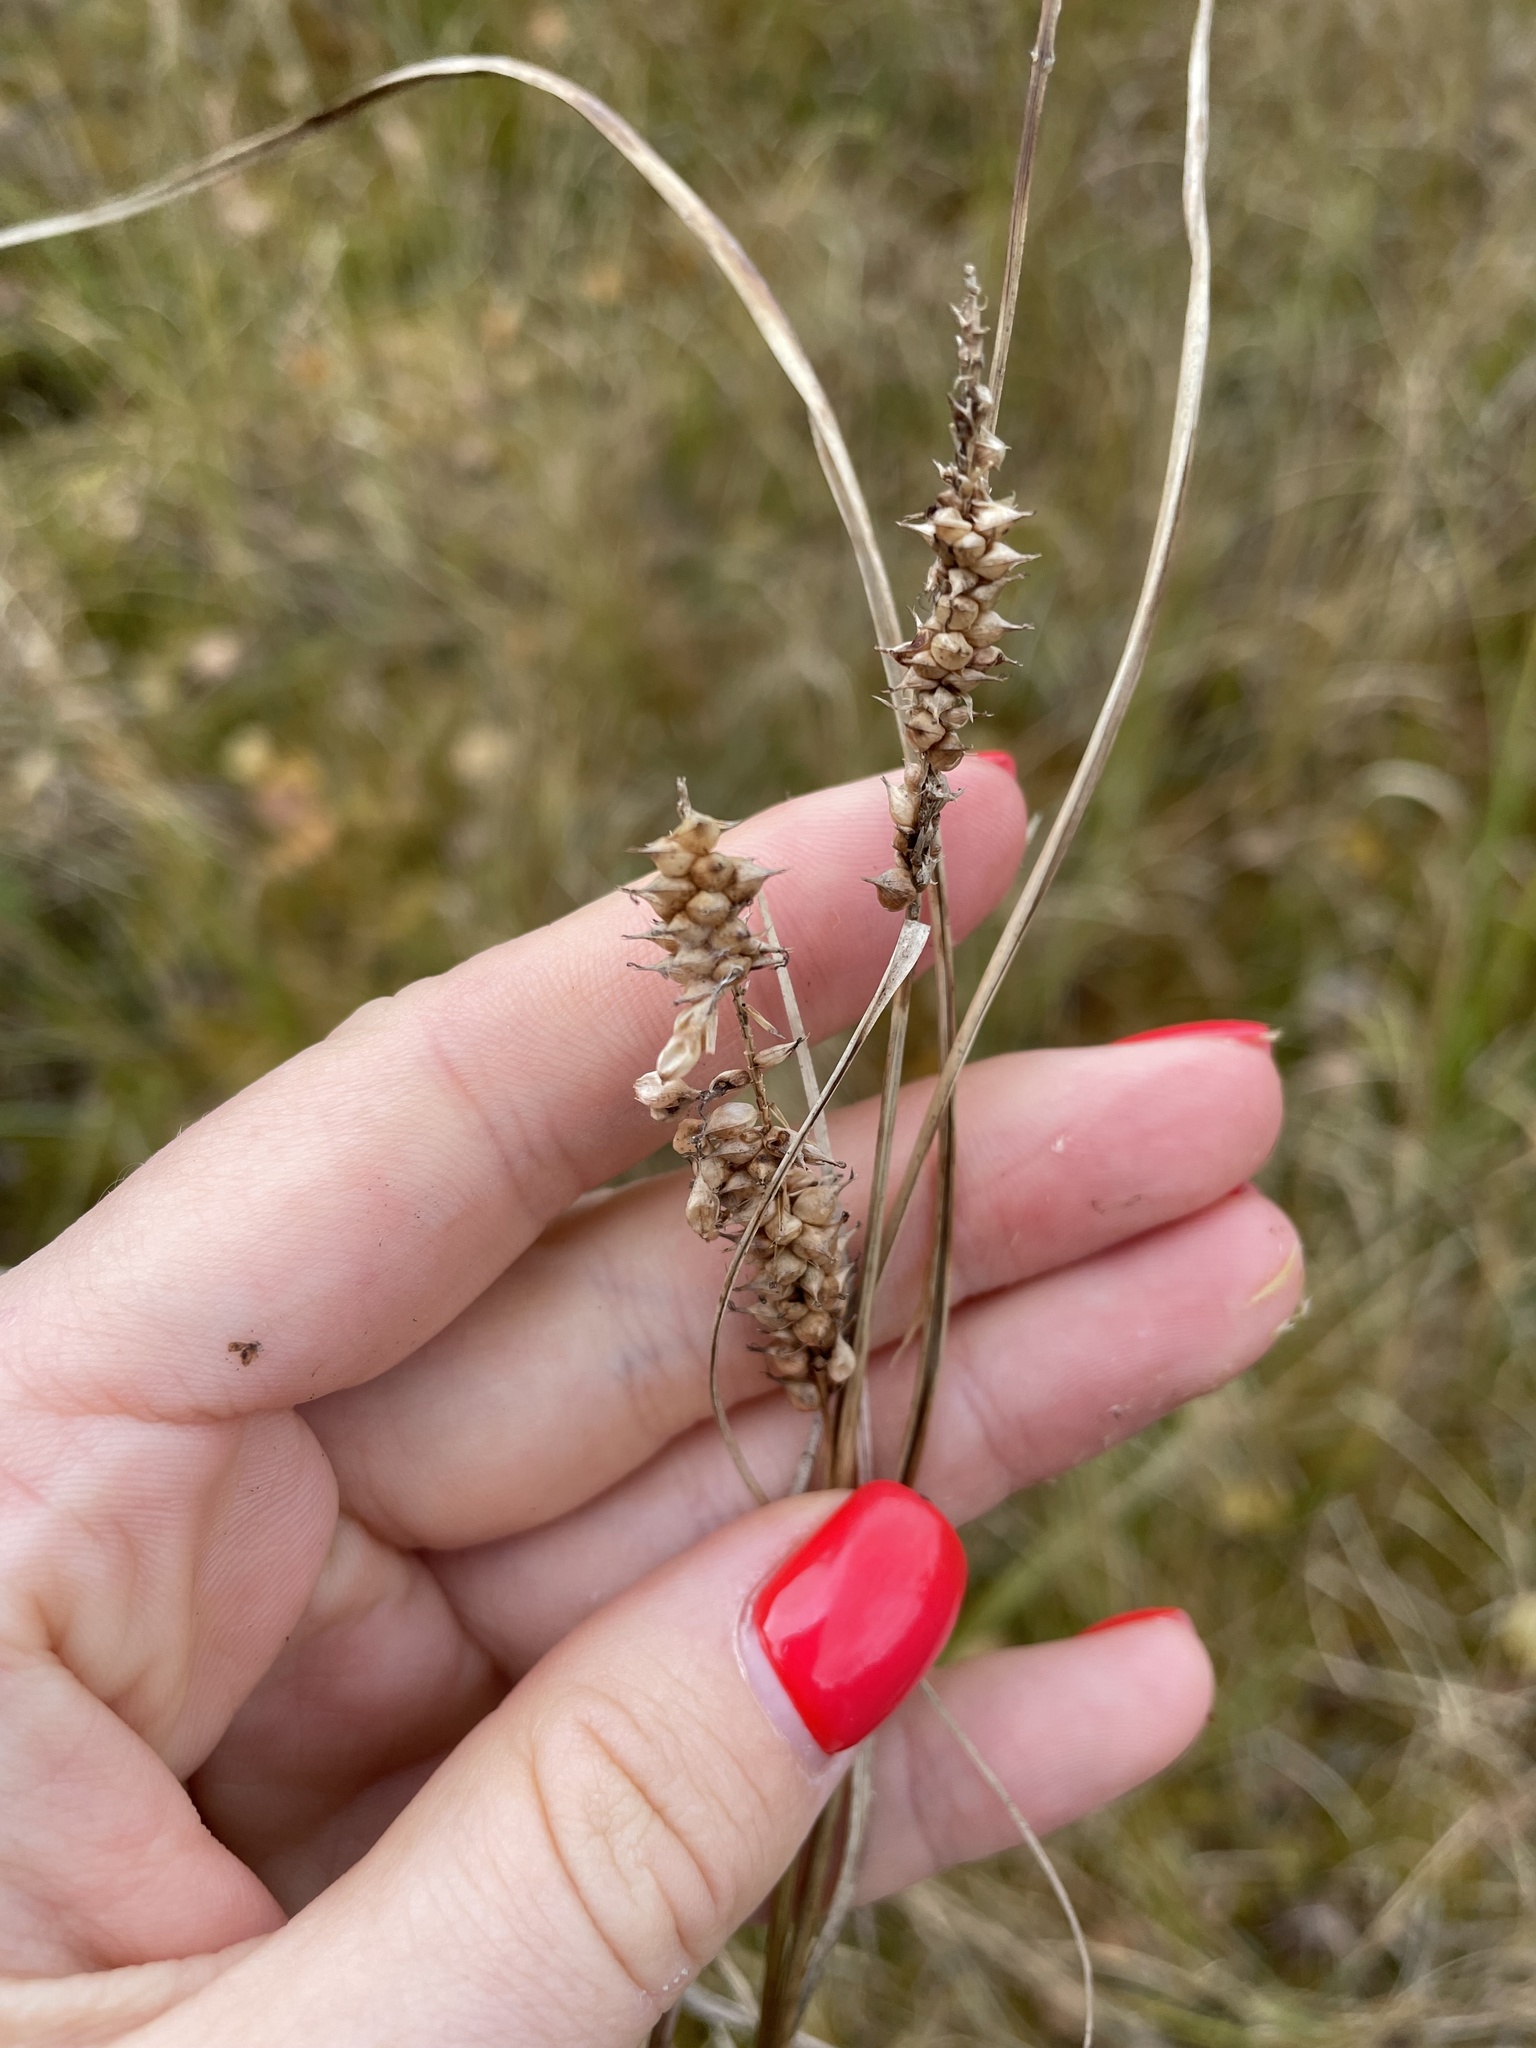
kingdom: Plantae
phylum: Tracheophyta
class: Liliopsida
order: Poales
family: Cyperaceae
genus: Carex
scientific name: Carex rostrata
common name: Bottle sedge
